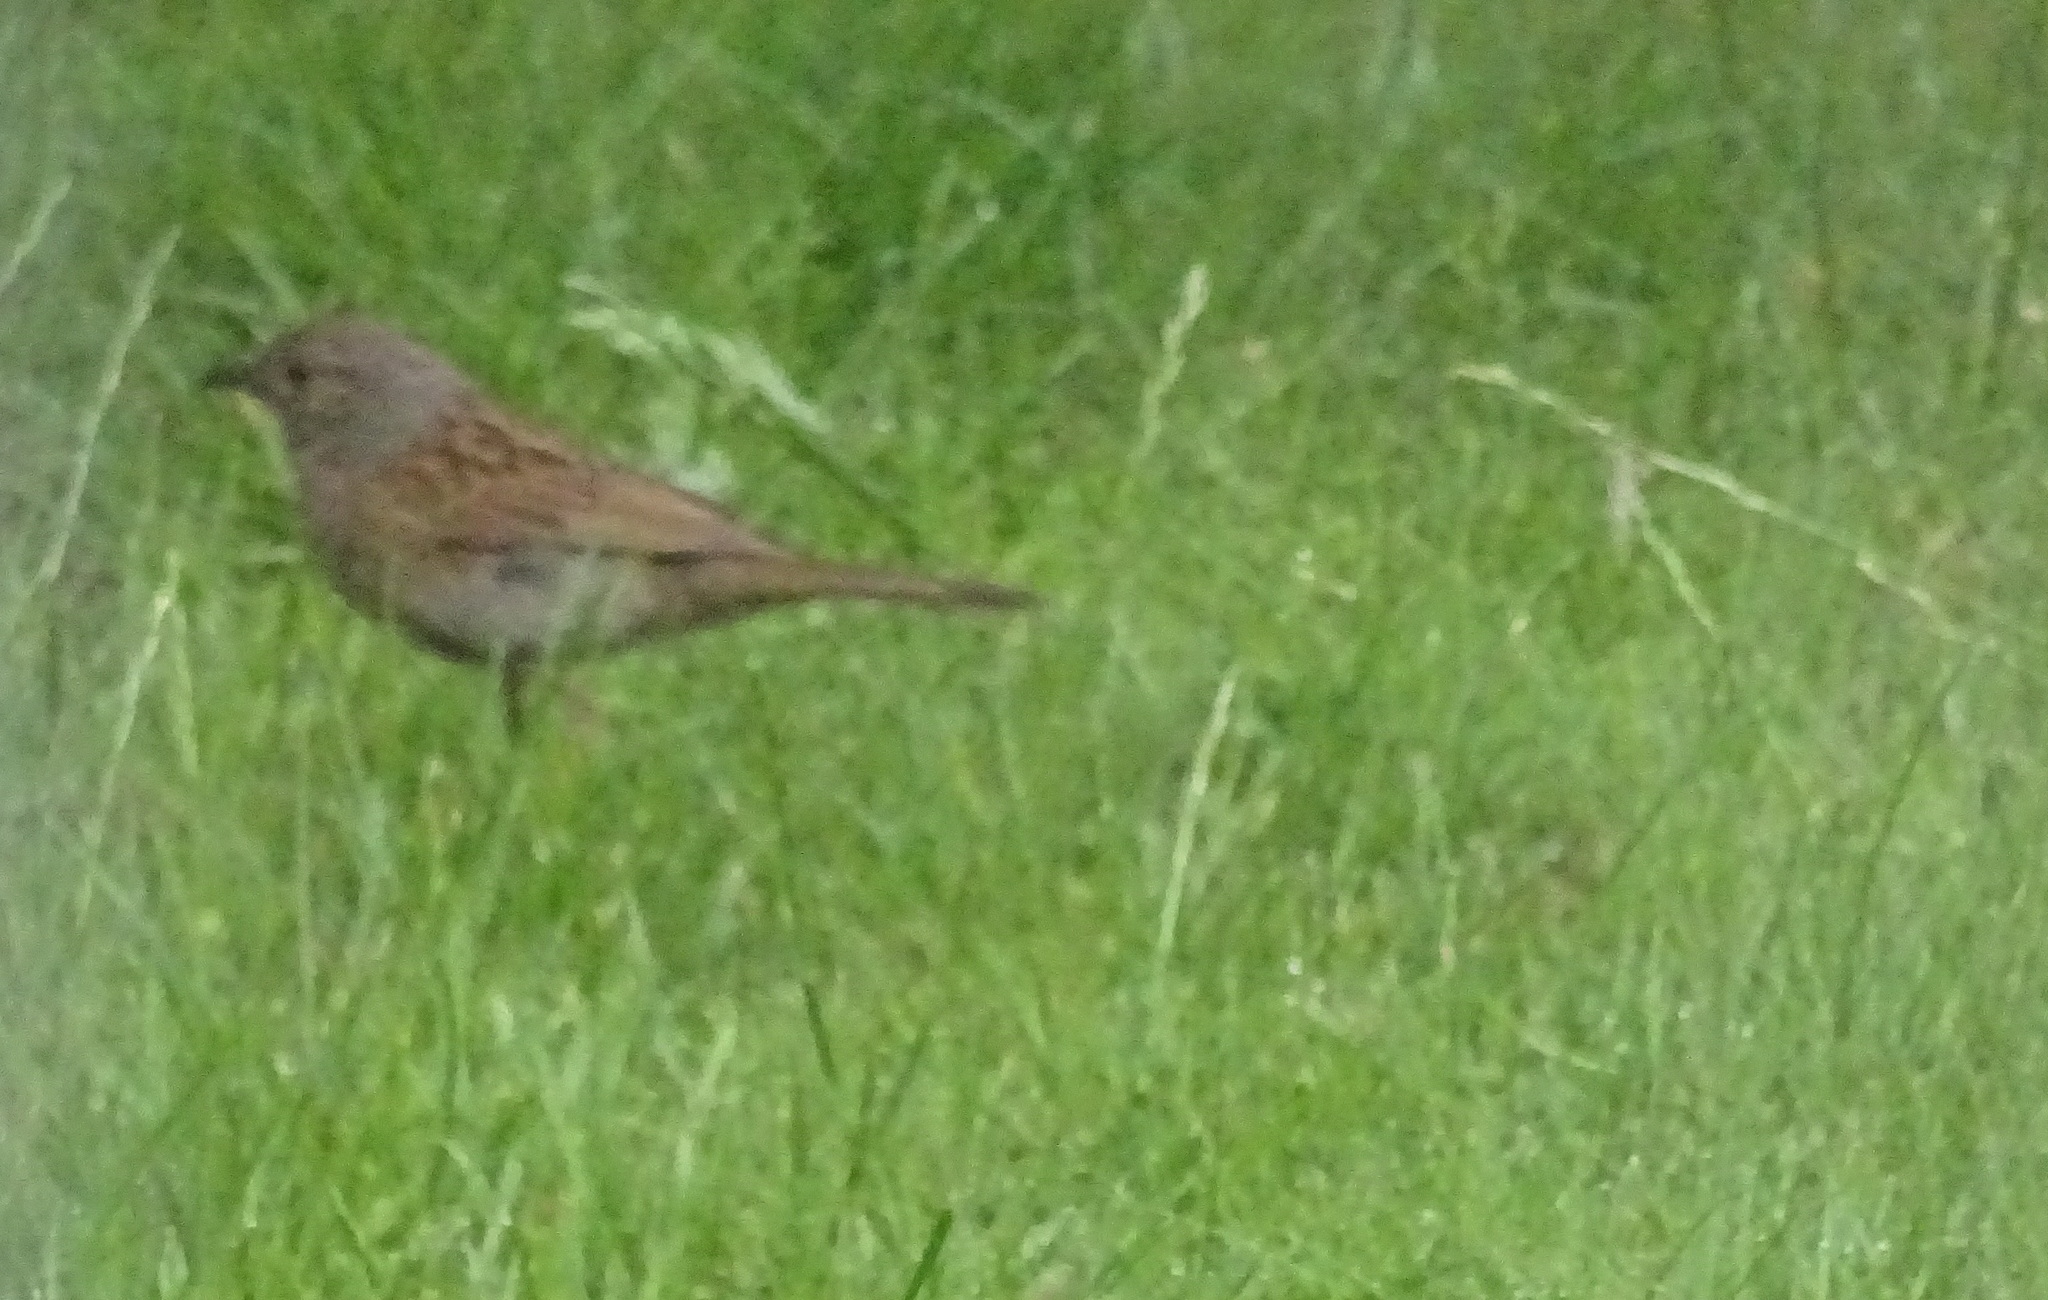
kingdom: Animalia
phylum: Chordata
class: Aves
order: Passeriformes
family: Prunellidae
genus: Prunella
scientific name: Prunella modularis
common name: Dunnock
